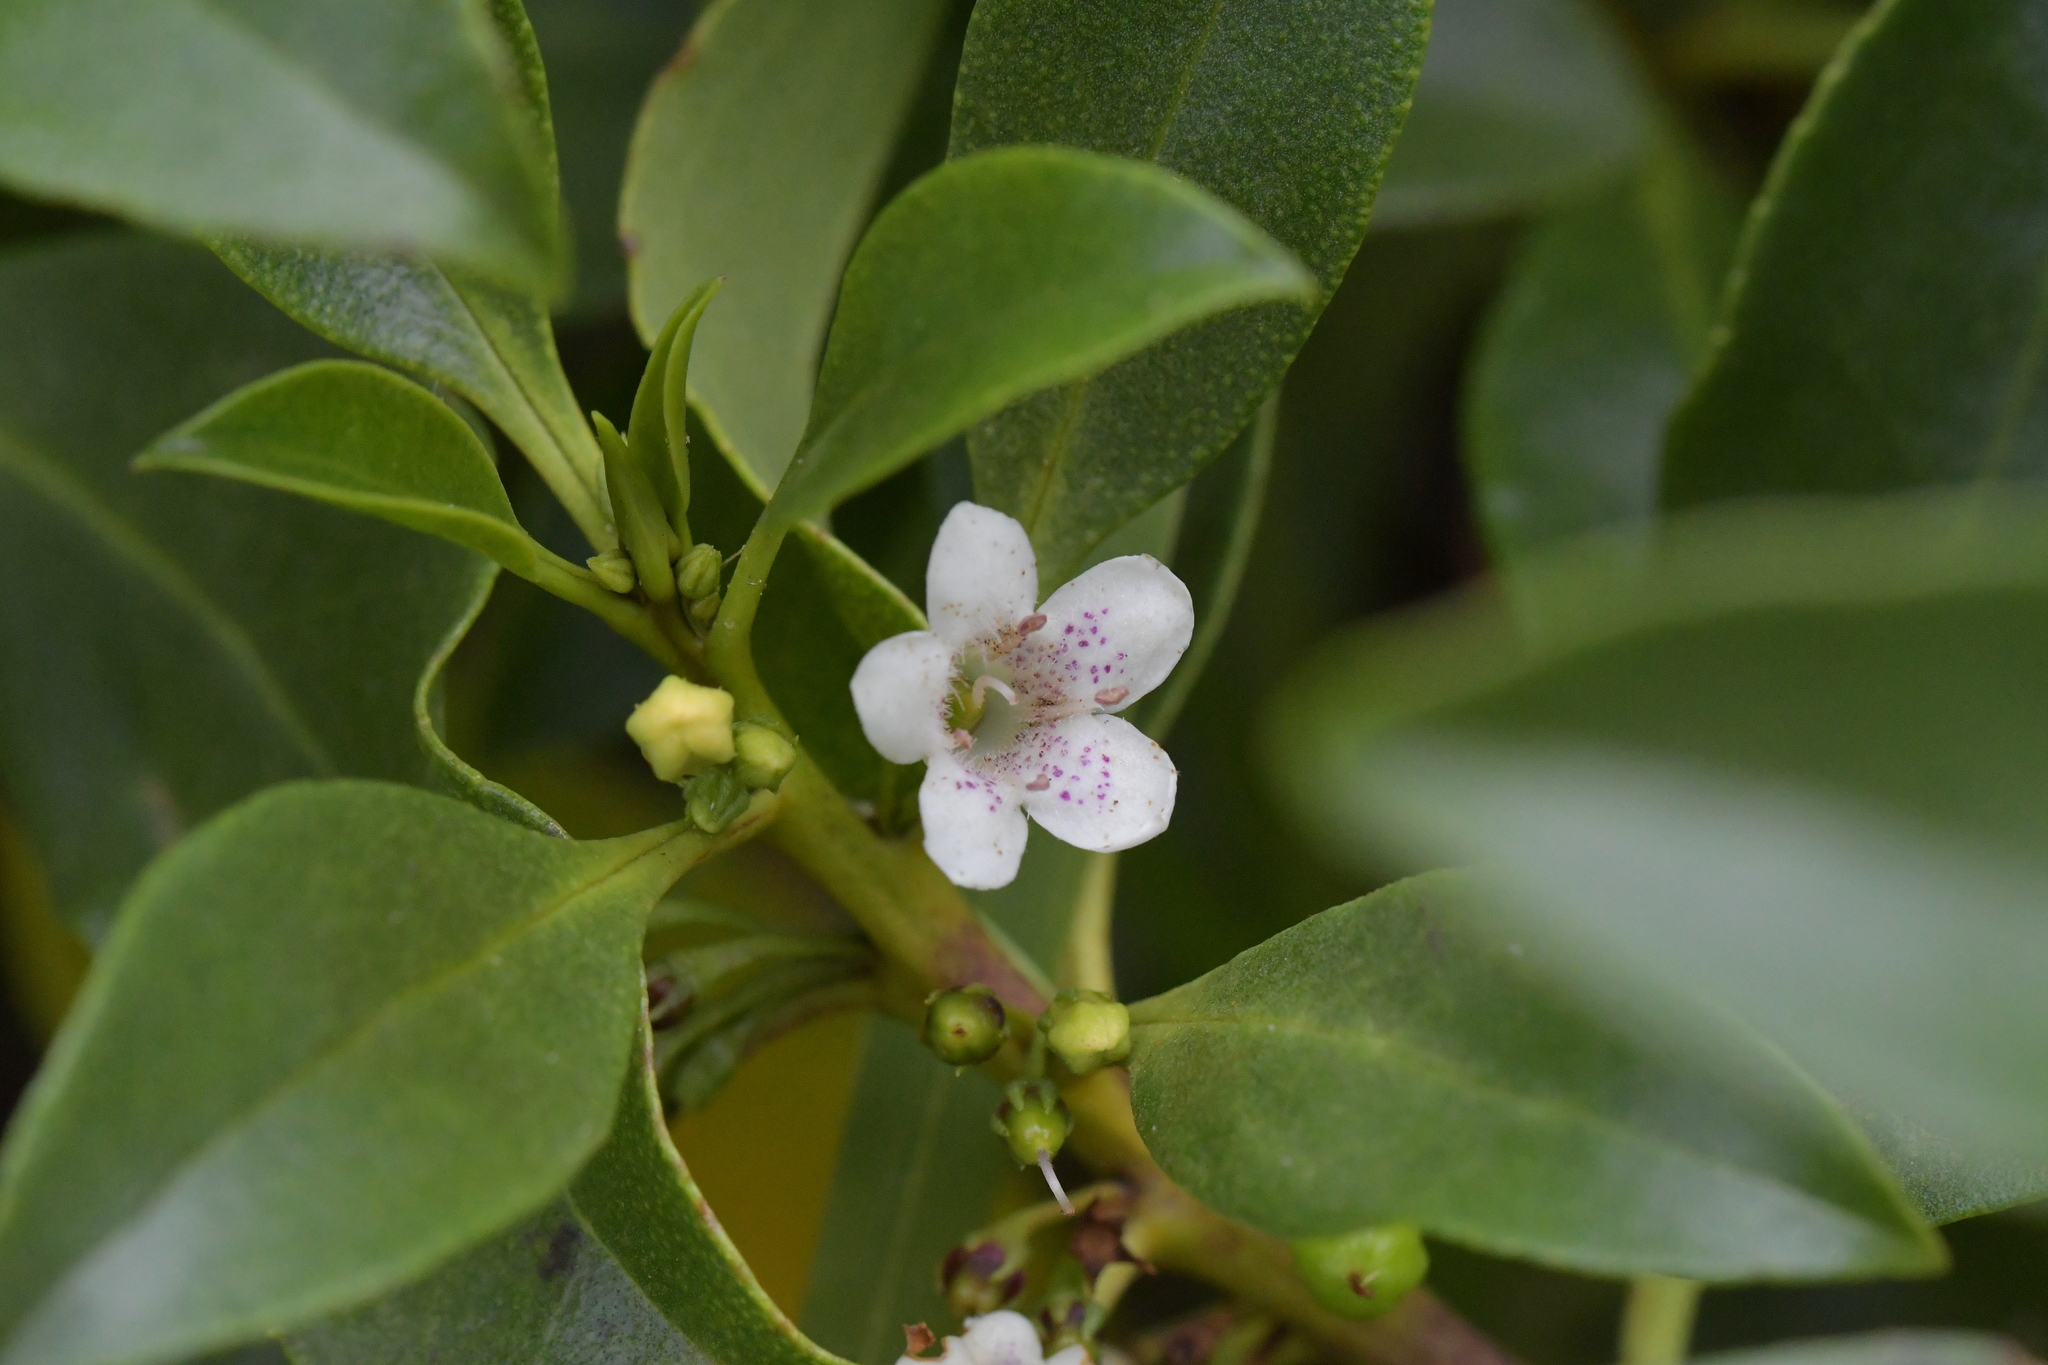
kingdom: Plantae
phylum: Tracheophyta
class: Magnoliopsida
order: Lamiales
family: Scrophulariaceae
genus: Myoporum
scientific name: Myoporum laetum
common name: Ngaio tree
